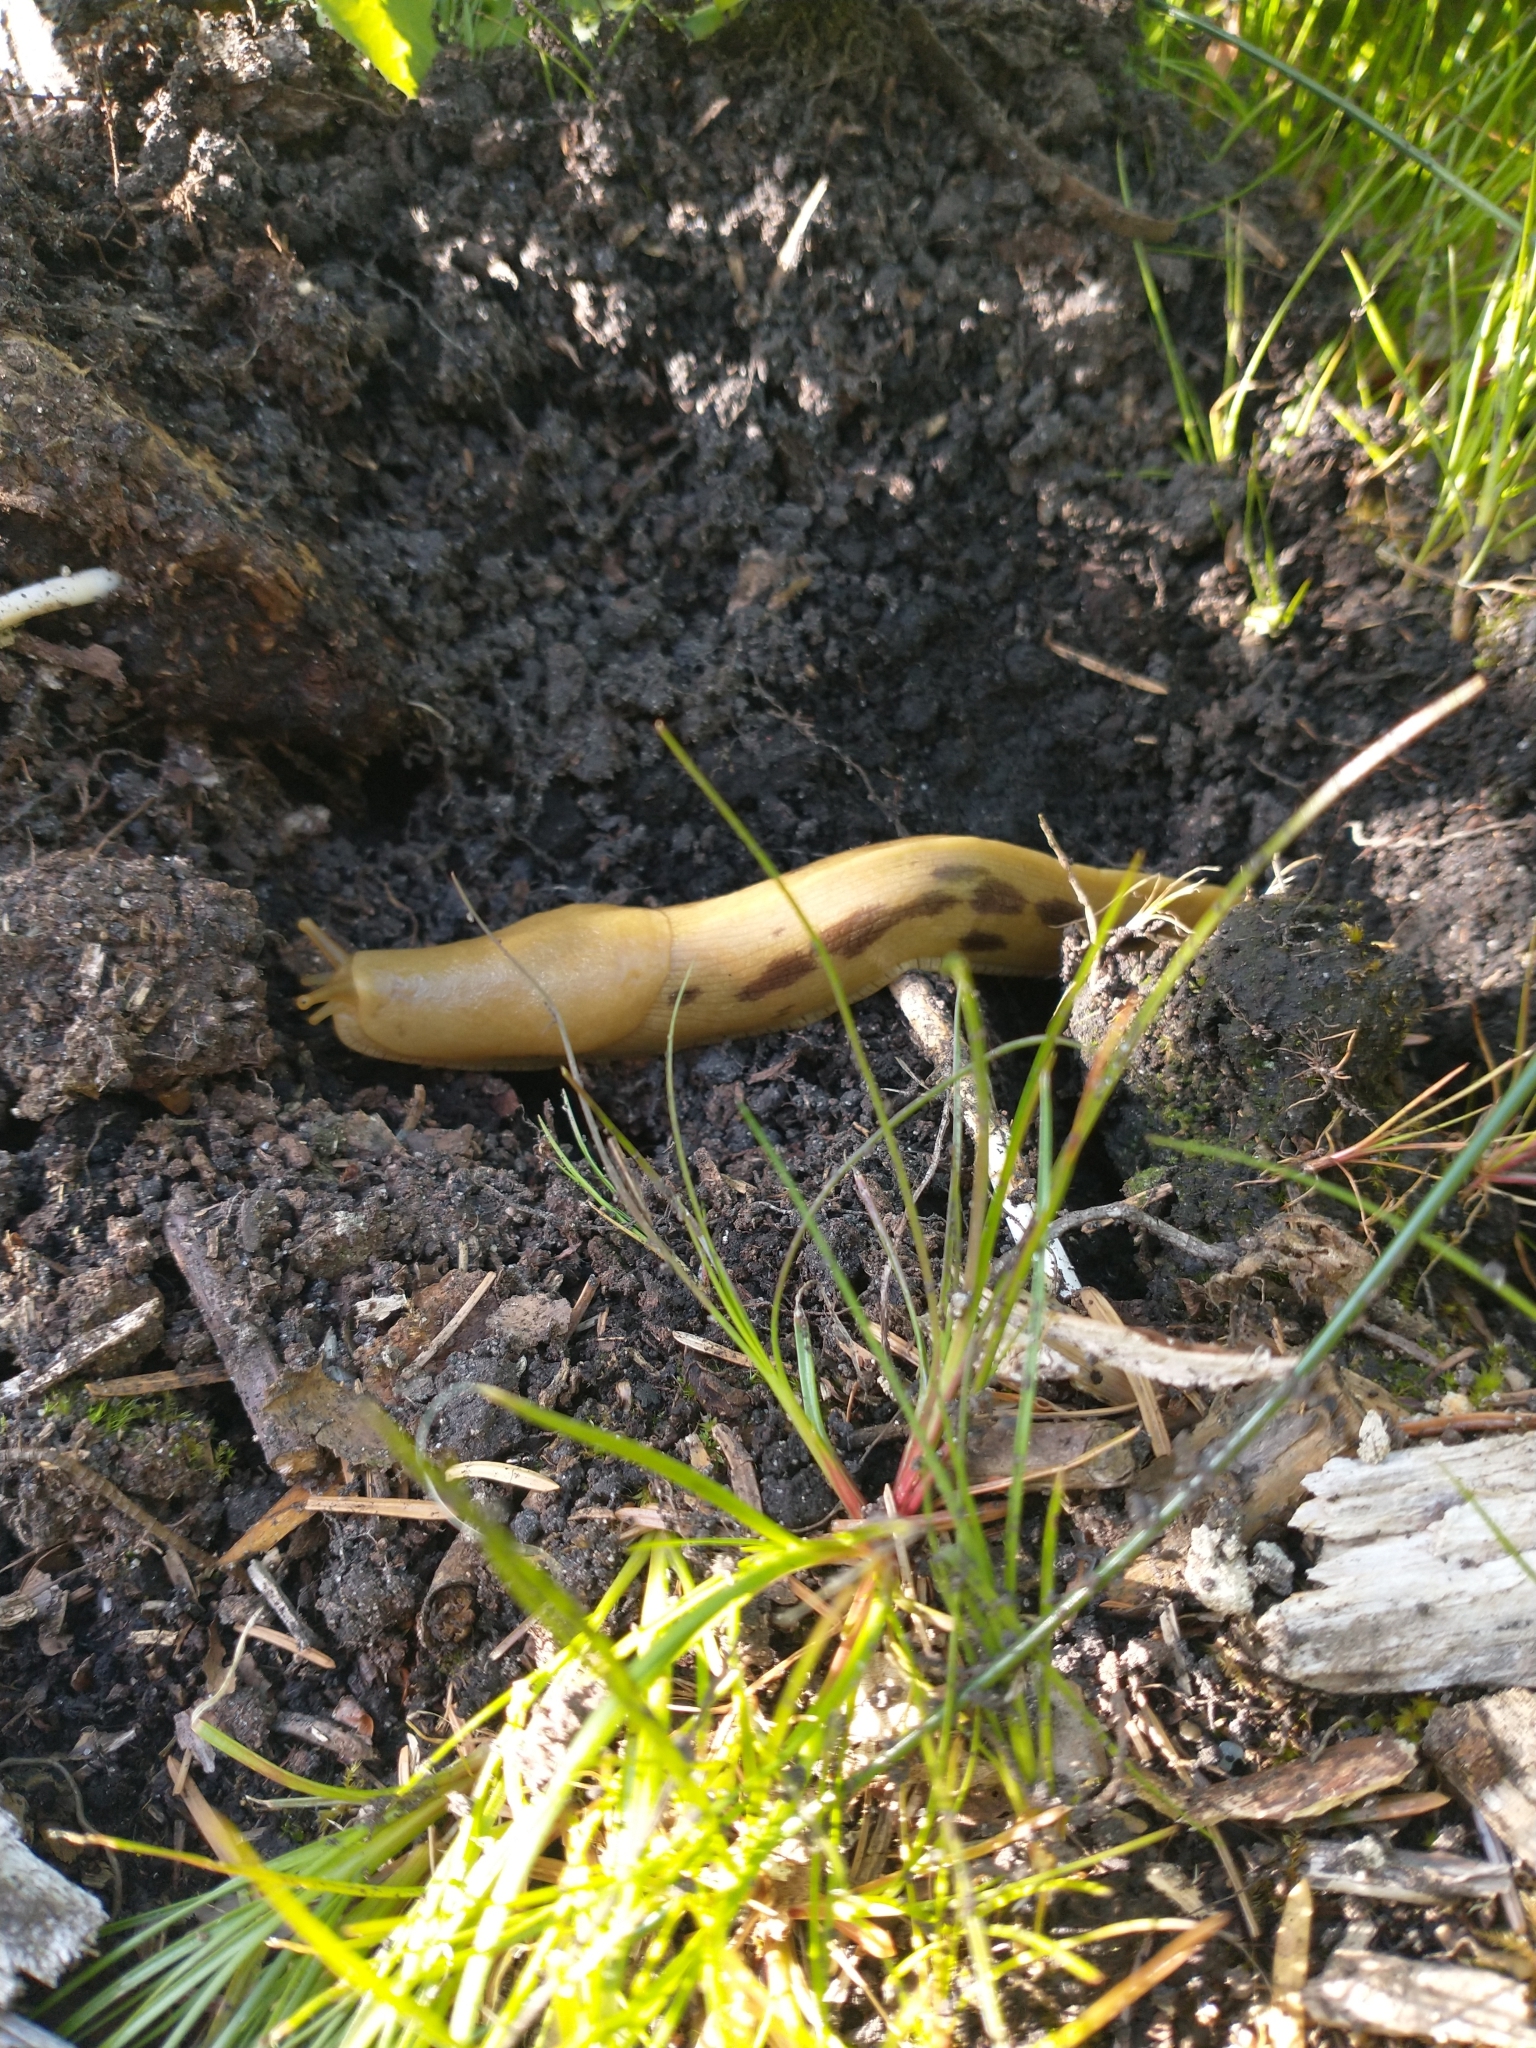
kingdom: Animalia
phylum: Mollusca
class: Gastropoda
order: Stylommatophora
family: Ariolimacidae
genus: Ariolimax
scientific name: Ariolimax columbianus
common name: Pacific banana slug
